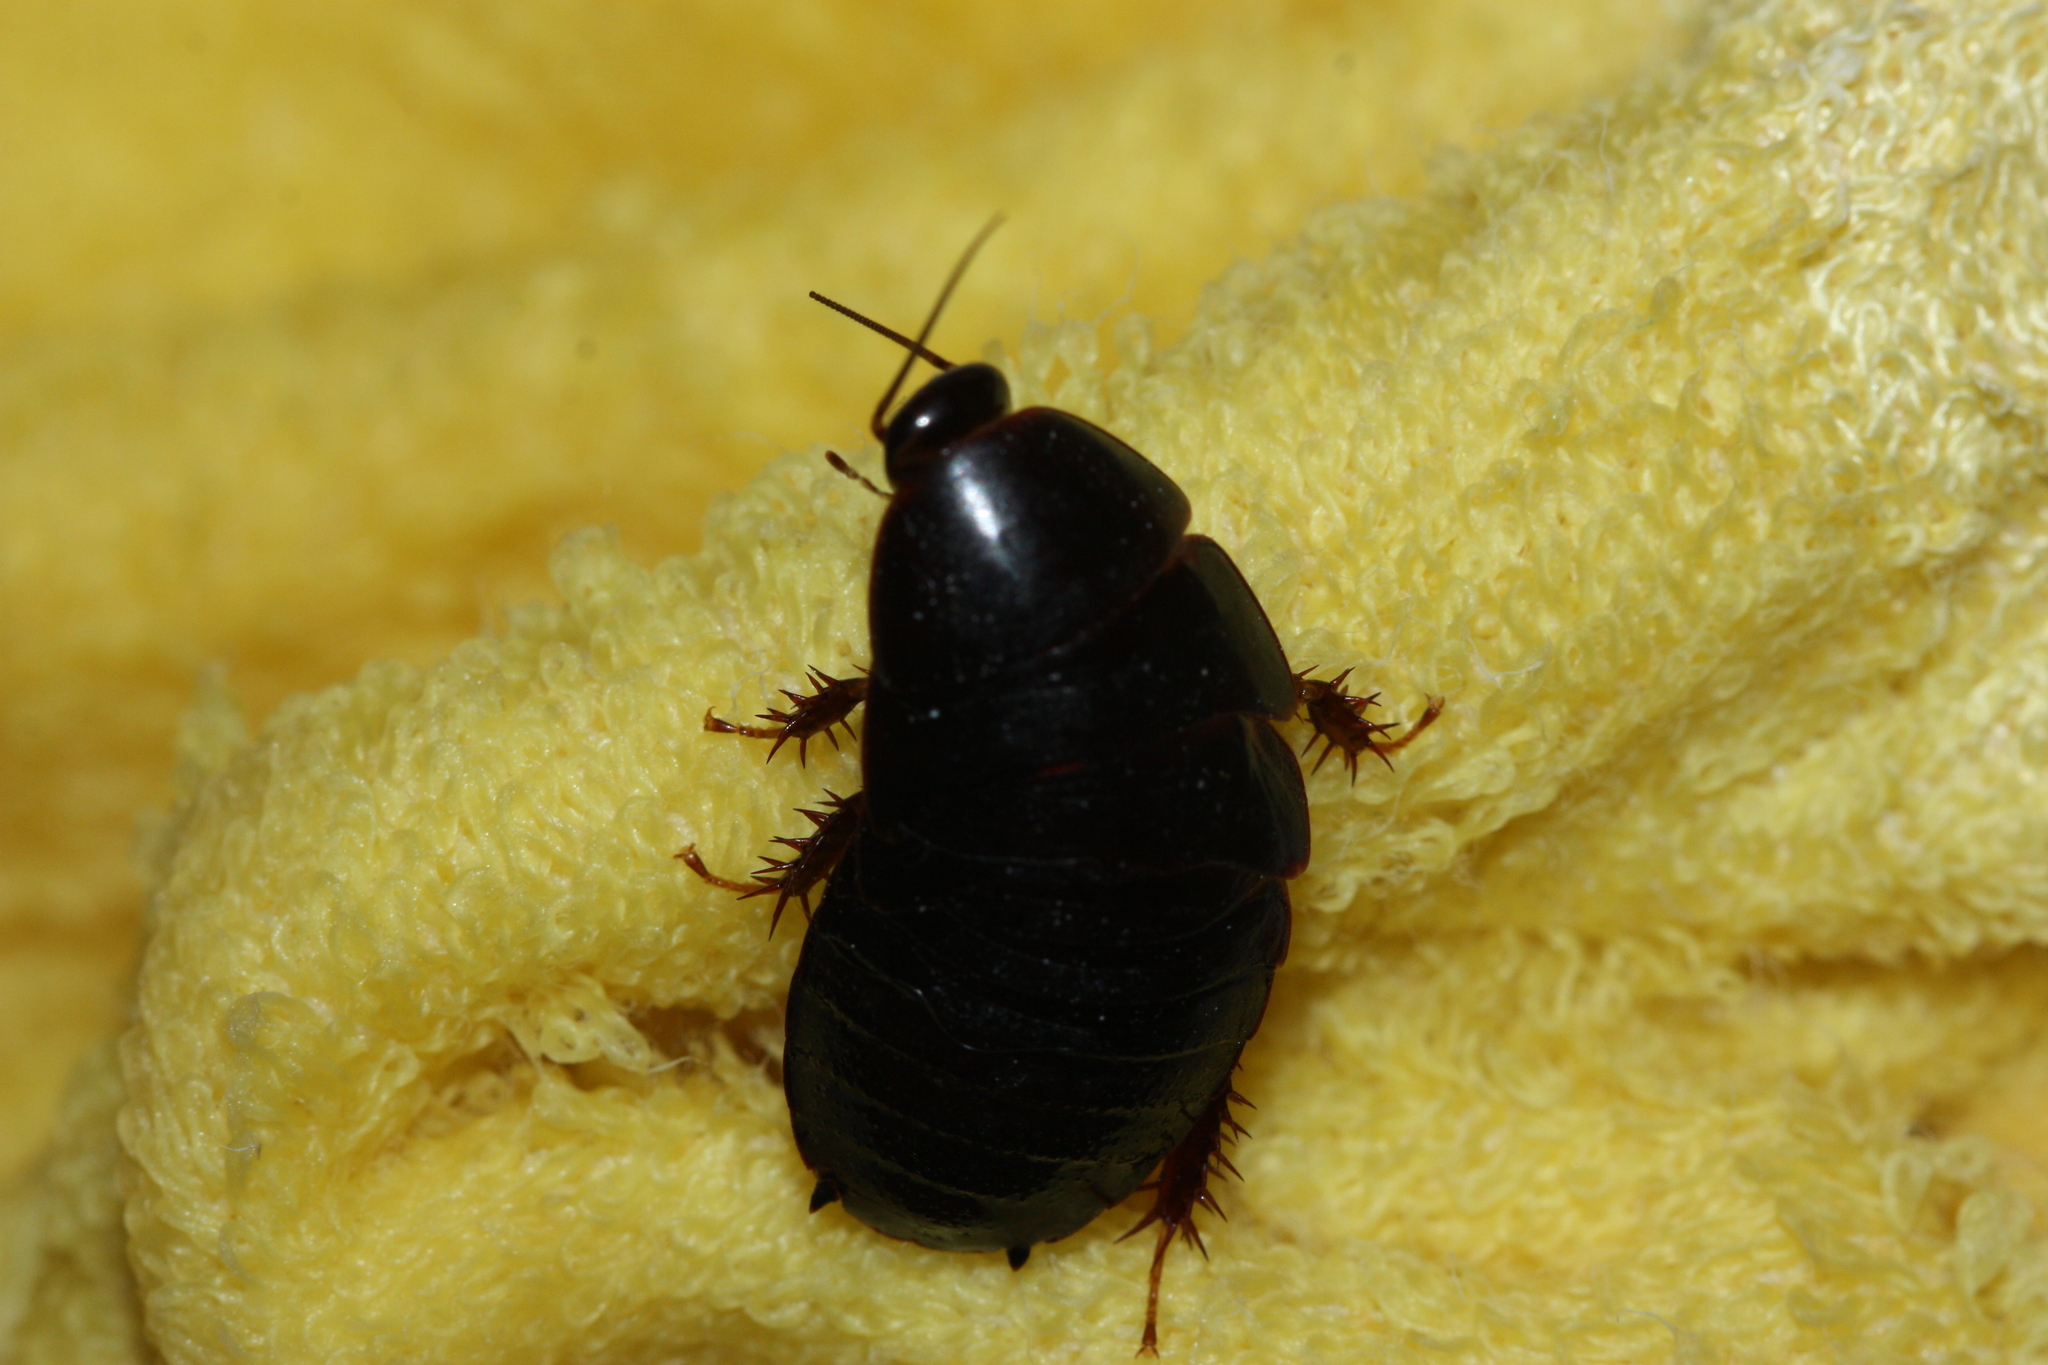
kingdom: Animalia
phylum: Arthropoda
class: Insecta
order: Blattodea
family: Blaberidae
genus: Pycnoscelus
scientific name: Pycnoscelus surinamensis
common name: Surinam cockroach
